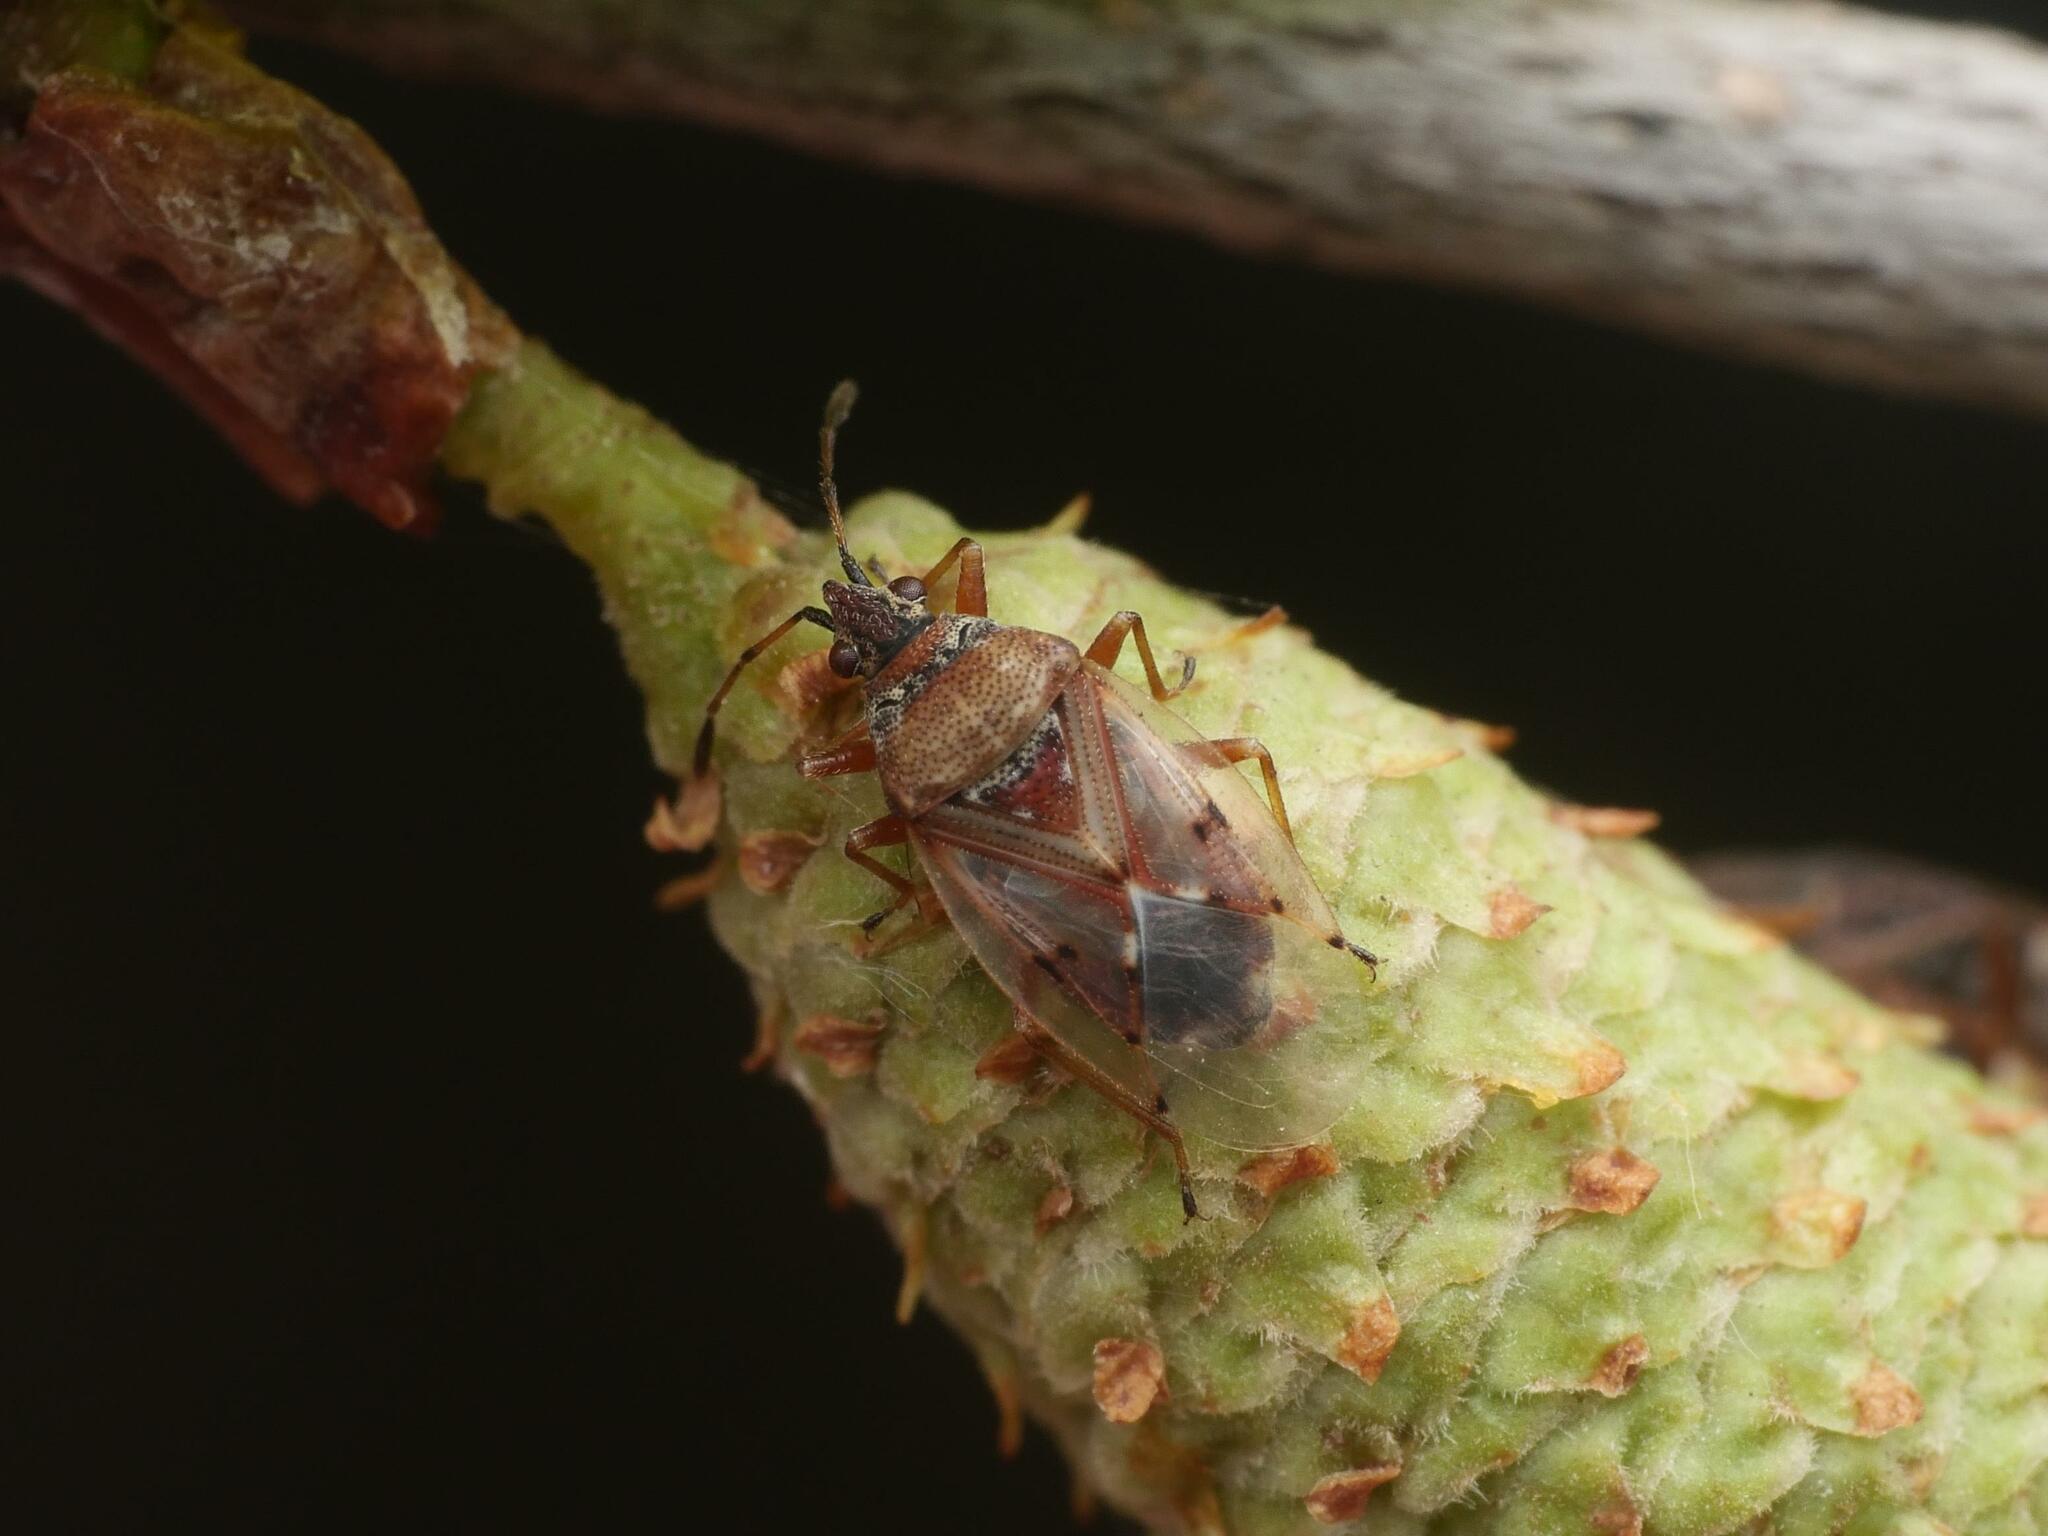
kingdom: Animalia
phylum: Arthropoda
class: Insecta
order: Hemiptera
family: Lygaeidae
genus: Kleidocerys
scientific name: Kleidocerys resedae
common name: Birch catkin bug
